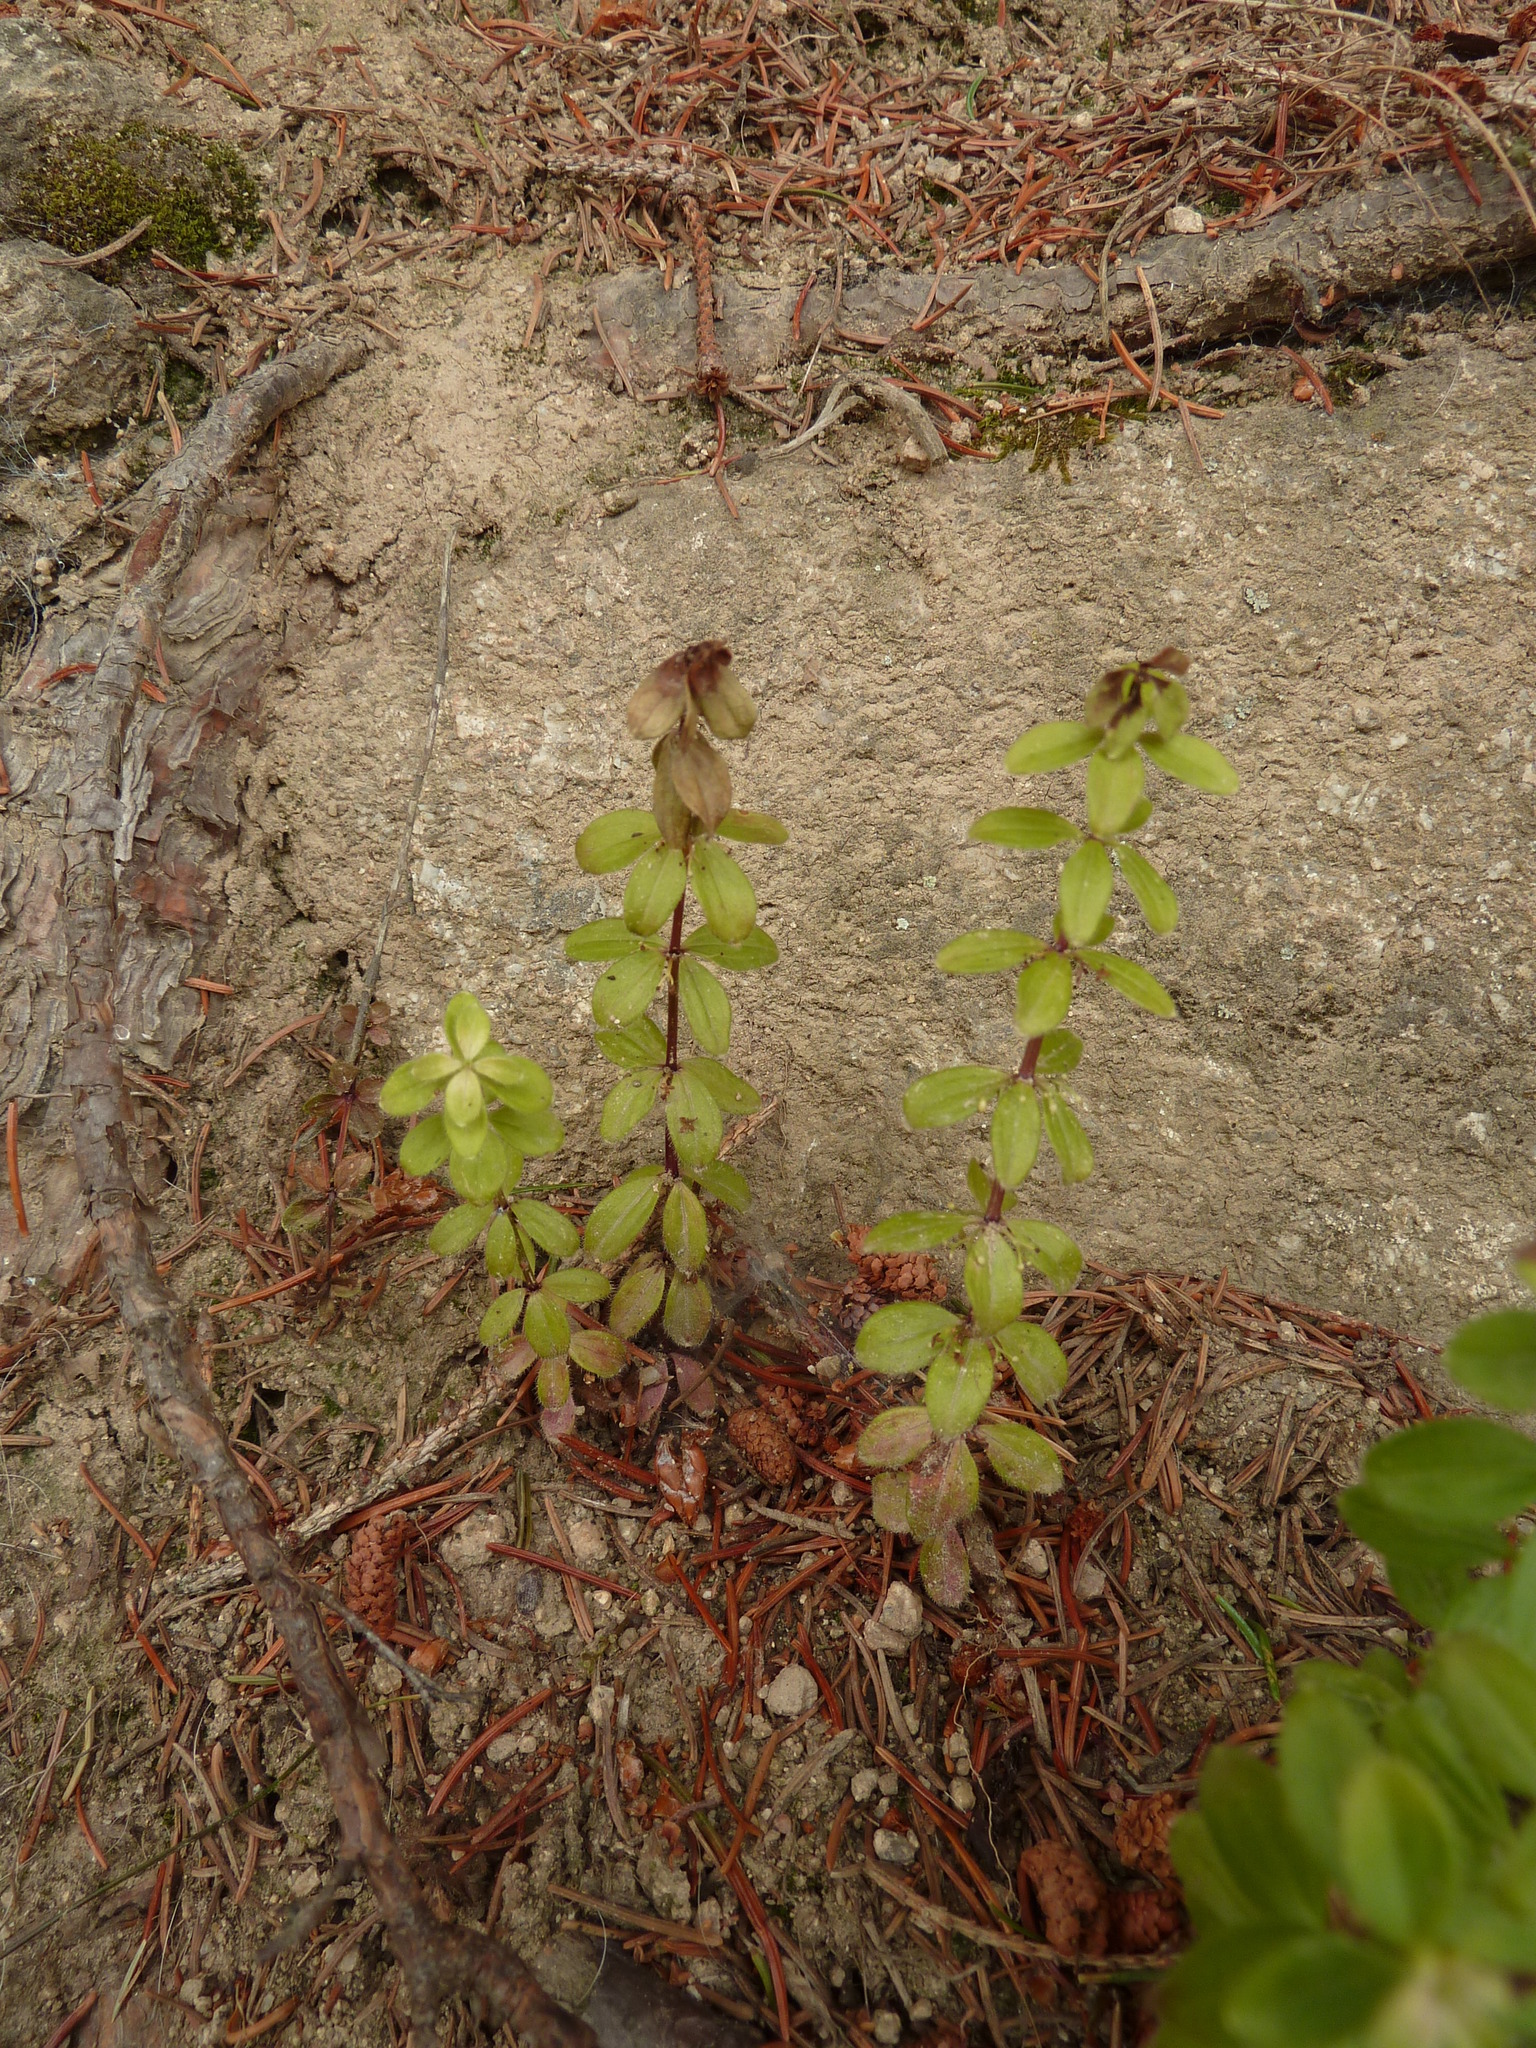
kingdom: Plantae
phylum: Tracheophyta
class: Magnoliopsida
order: Gentianales
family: Rubiaceae
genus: Cruciata
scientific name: Cruciata glabra
